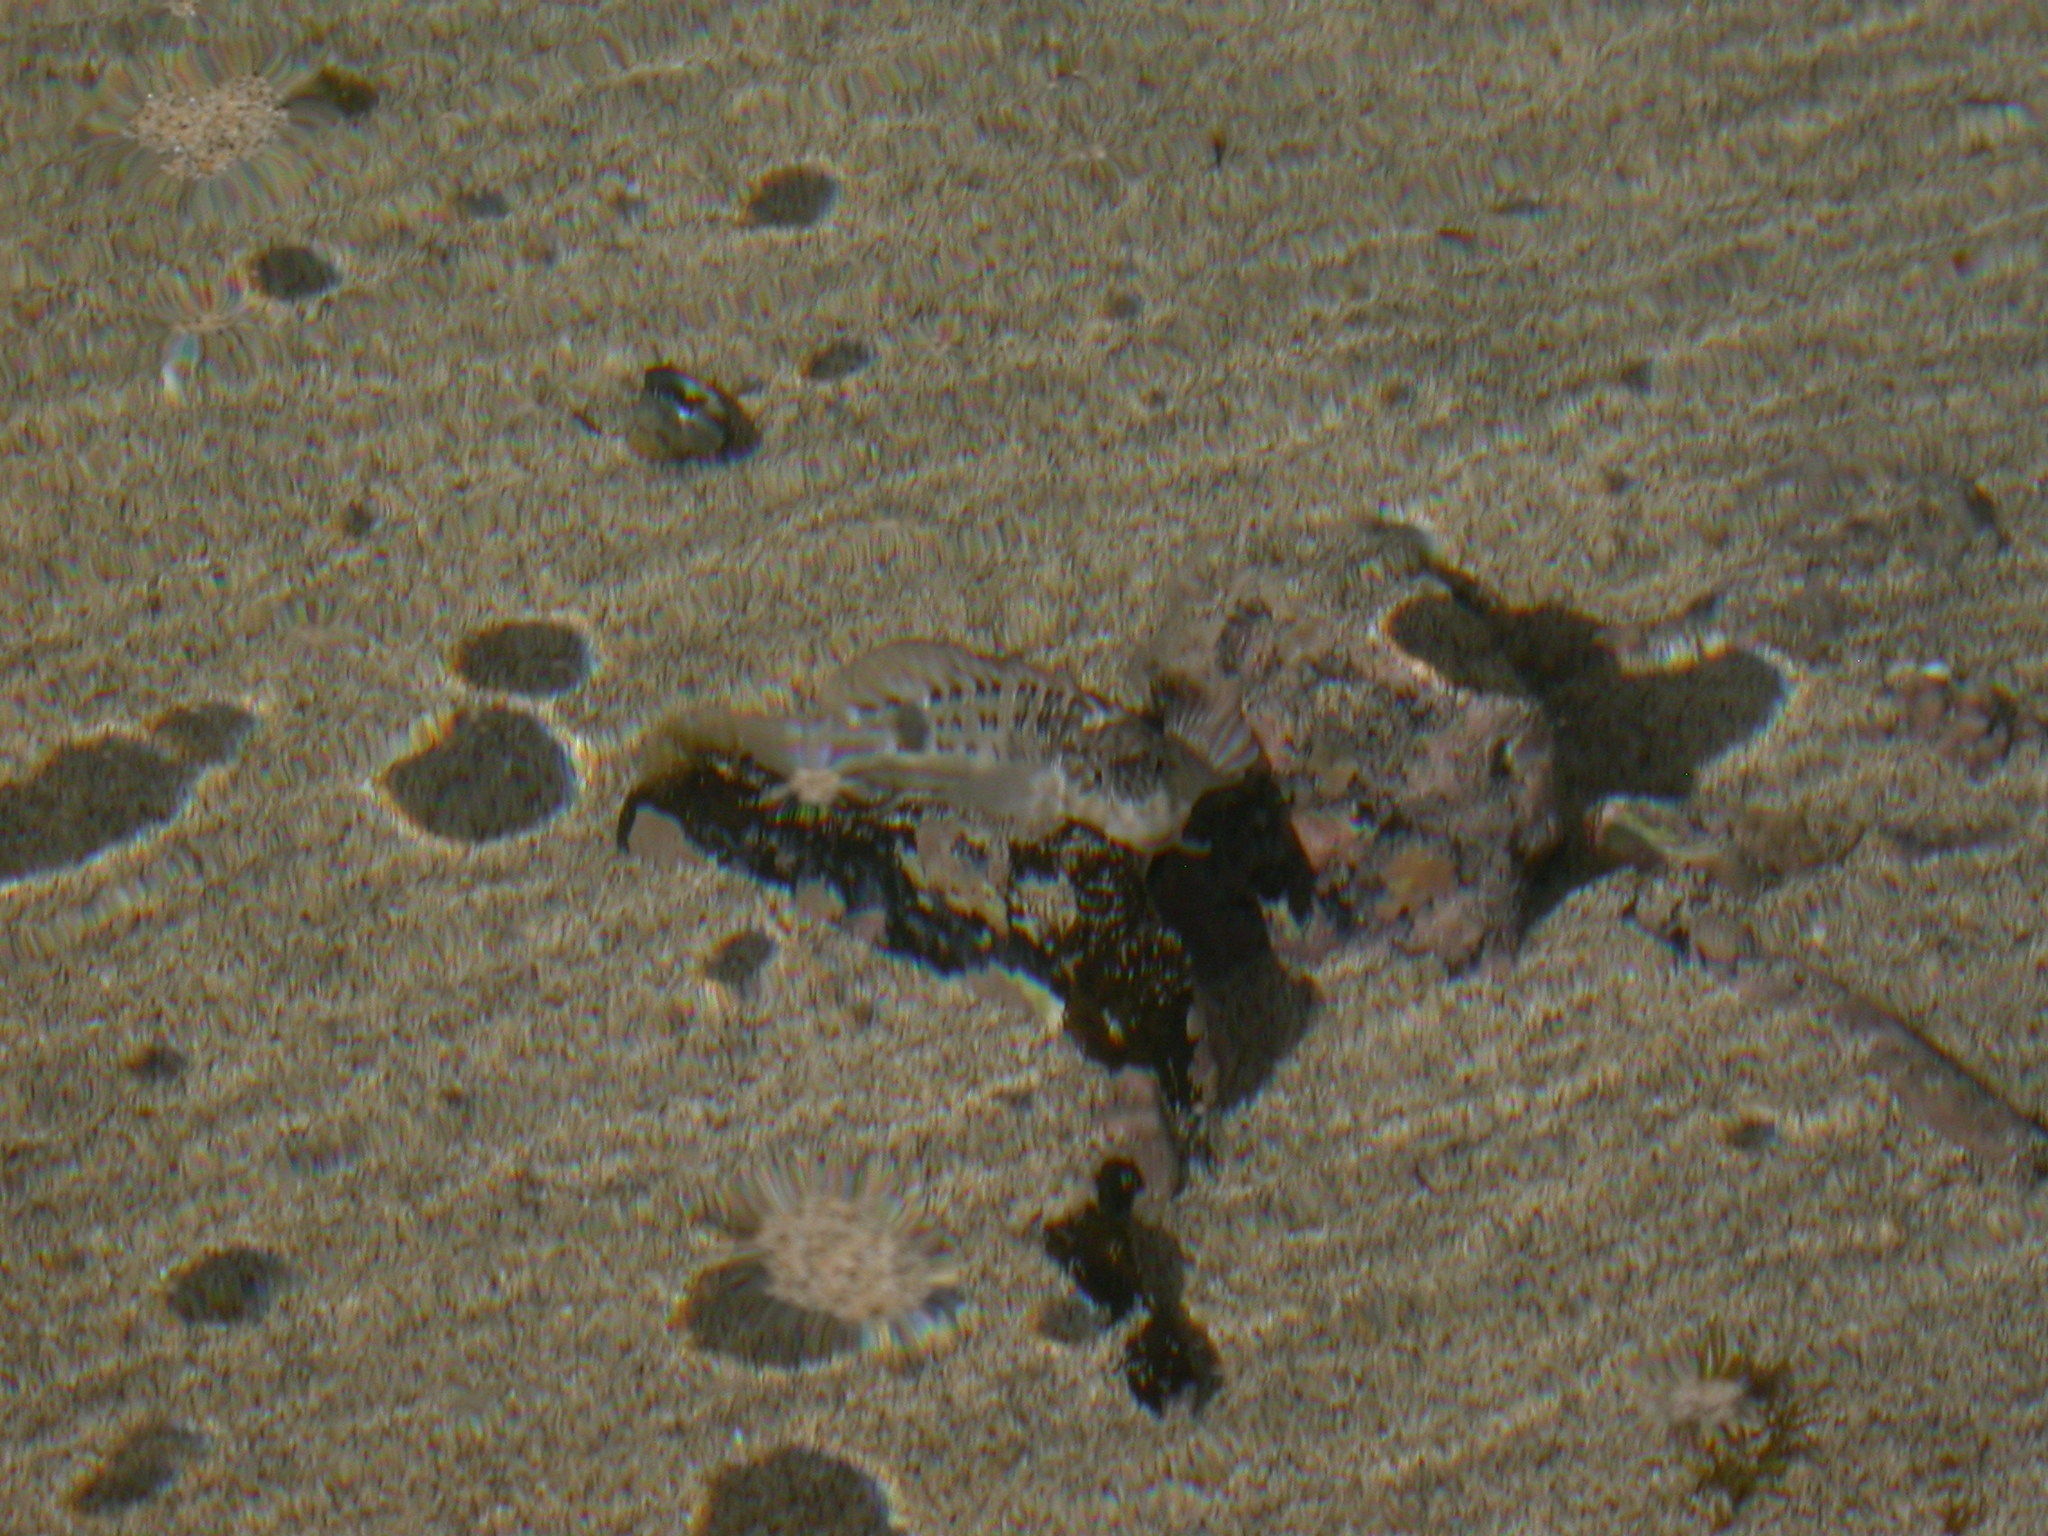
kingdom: Animalia
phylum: Chordata
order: Perciformes
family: Blenniidae
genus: Parablennius
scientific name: Parablennius parvicornis
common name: Rock-pool blenny
